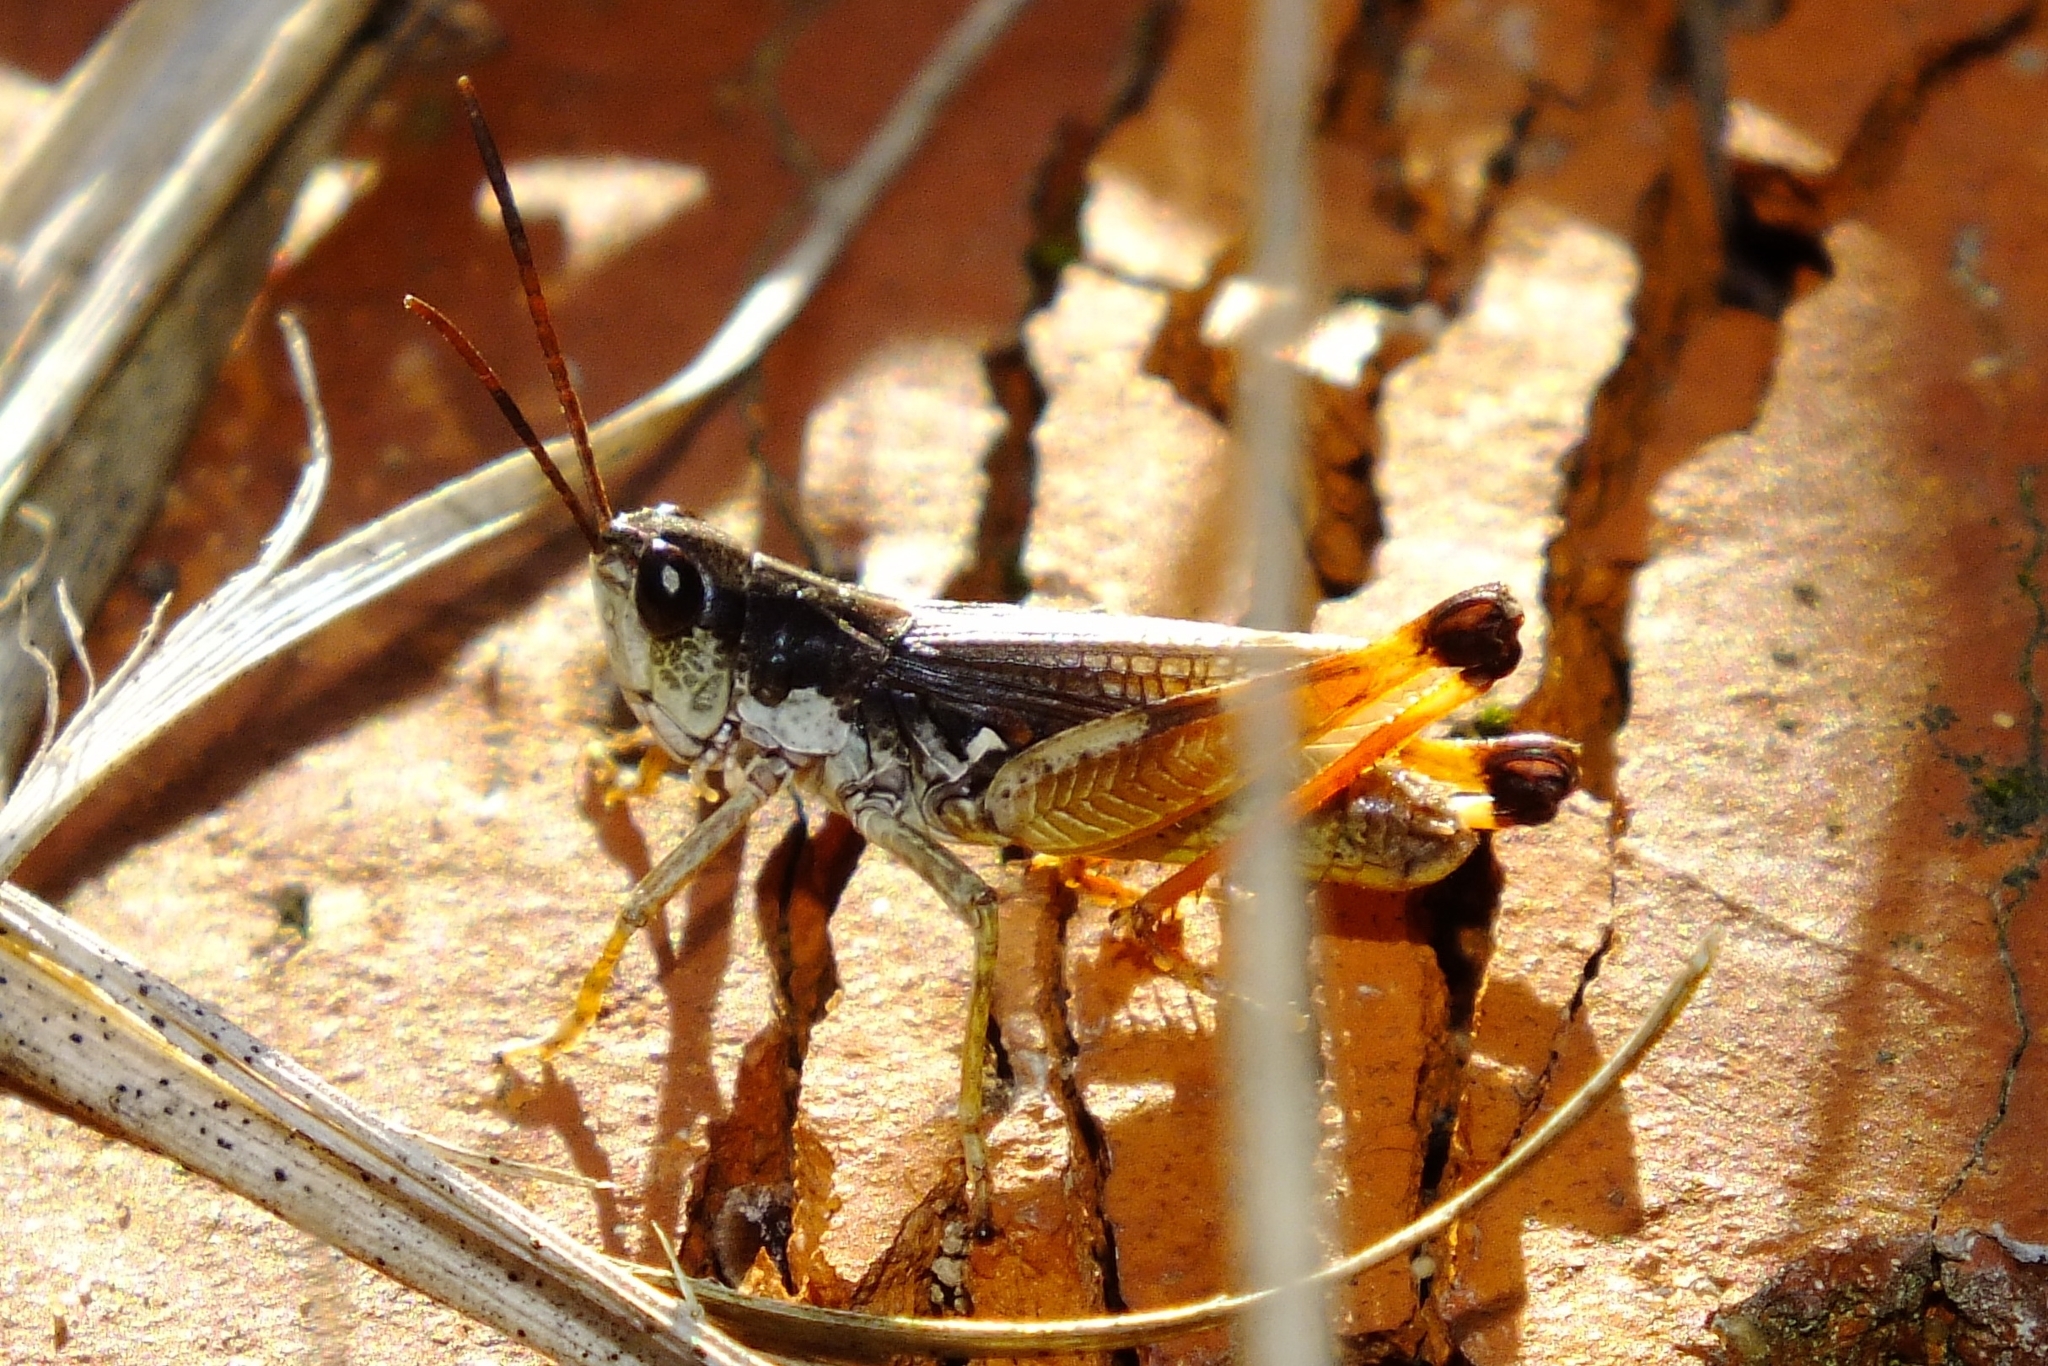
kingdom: Animalia
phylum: Arthropoda
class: Insecta
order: Orthoptera
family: Acrididae
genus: Podismopsis
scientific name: Podismopsis poppiusi
